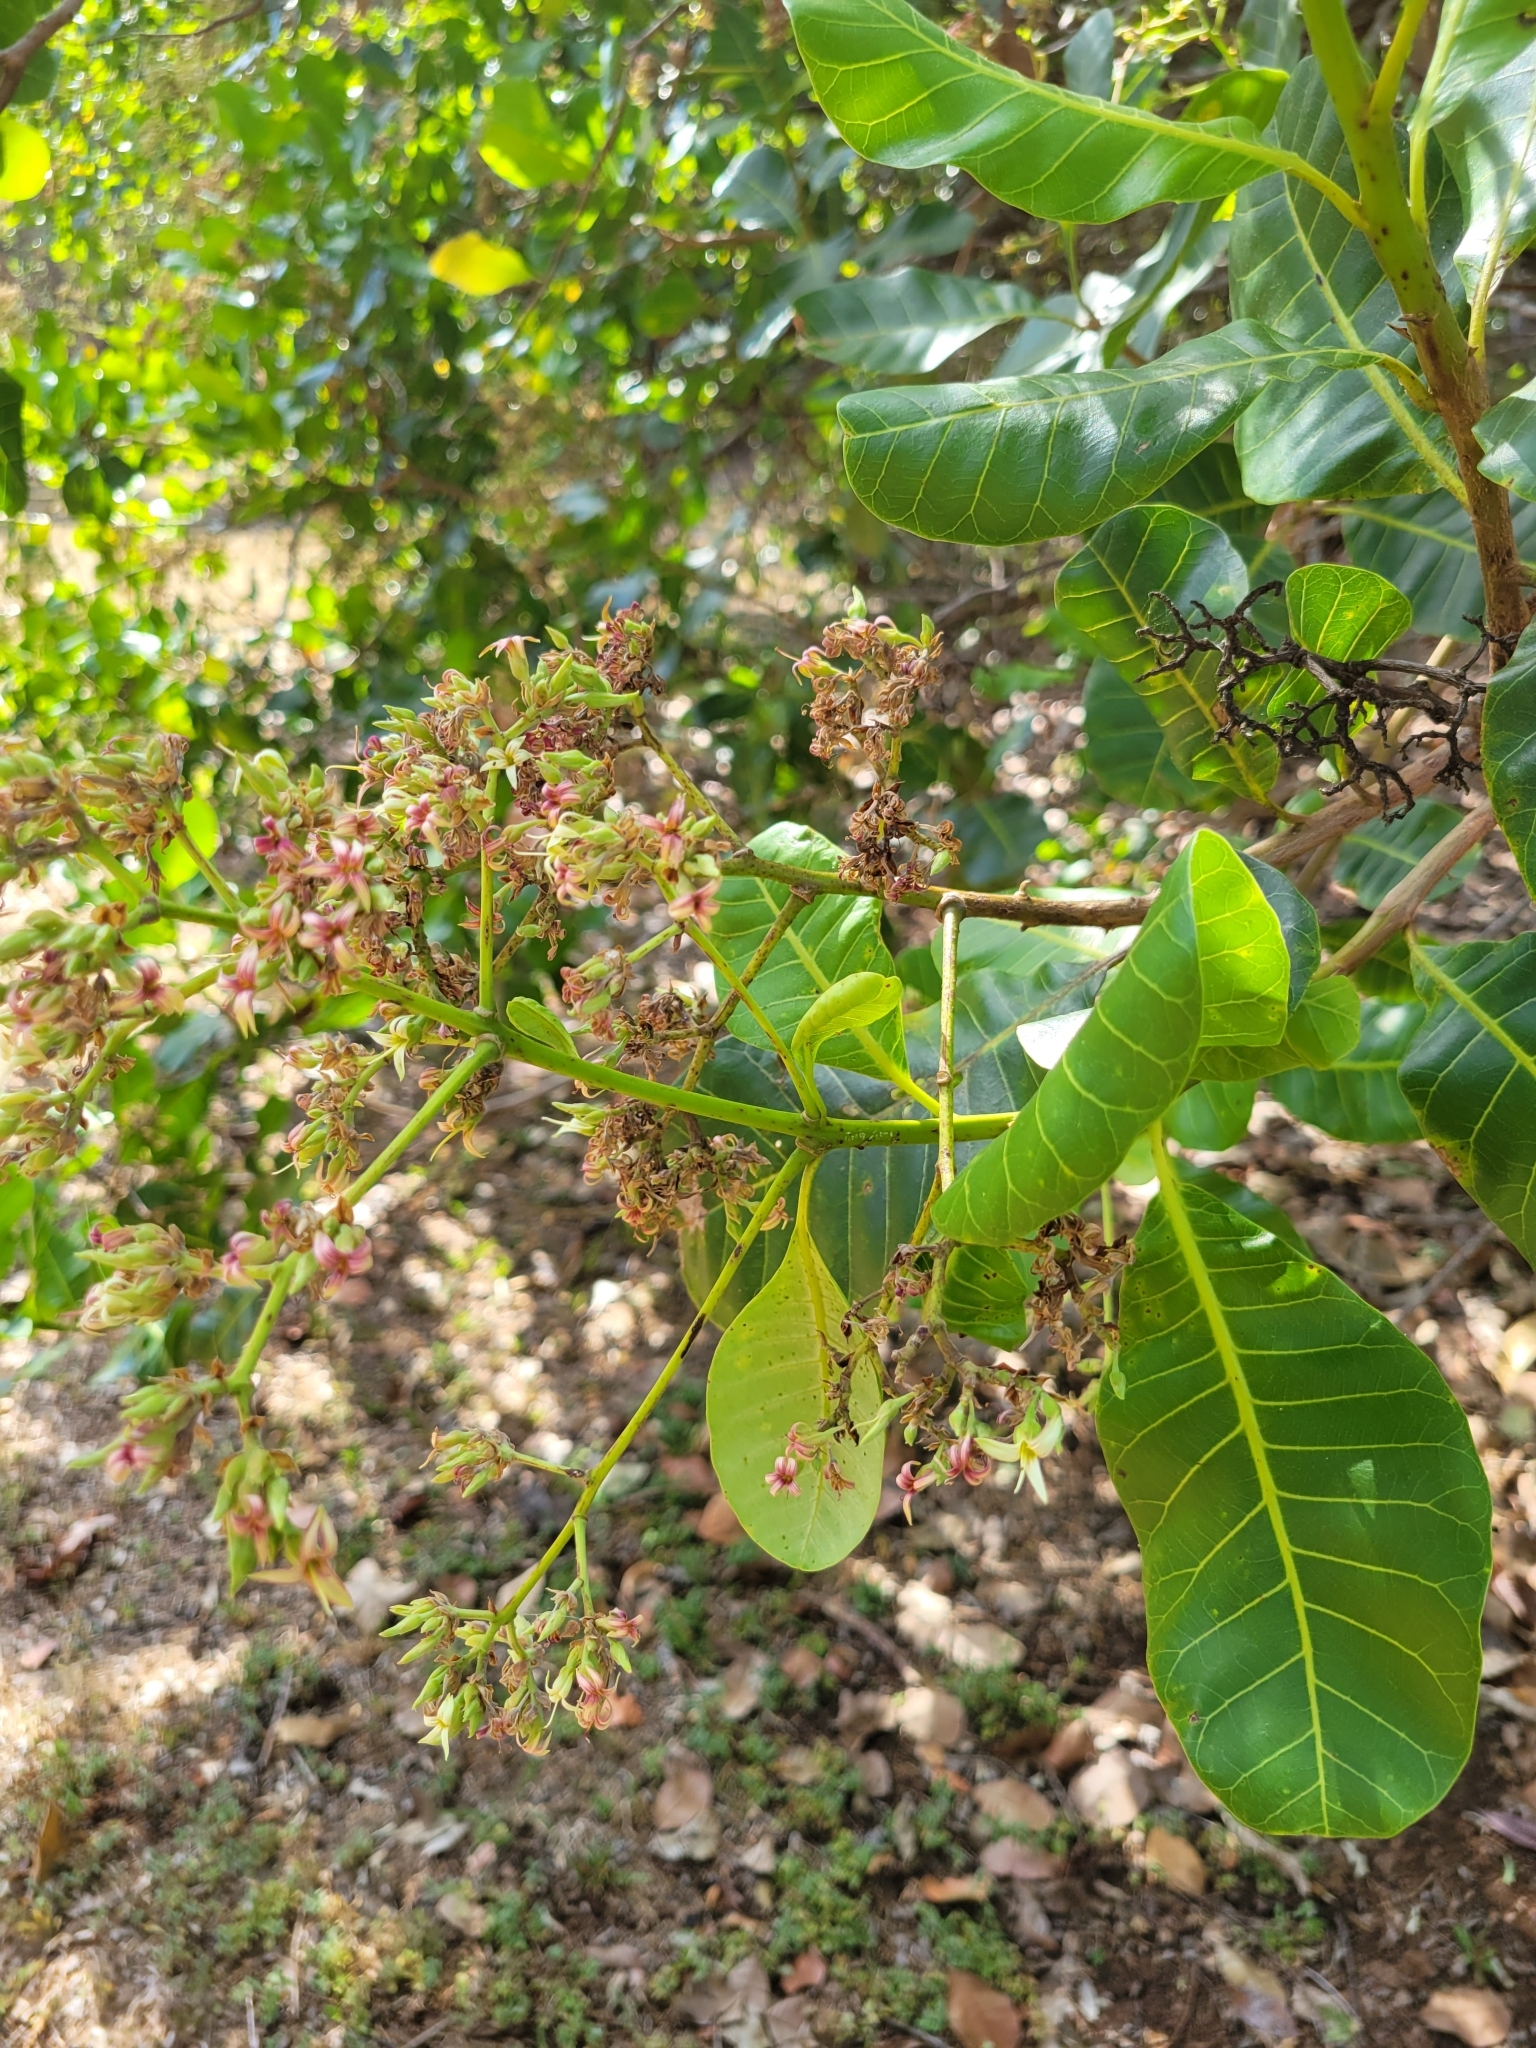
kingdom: Plantae
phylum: Tracheophyta
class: Magnoliopsida
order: Sapindales
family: Anacardiaceae
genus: Anacardium
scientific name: Anacardium occidentale
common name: Cashew
